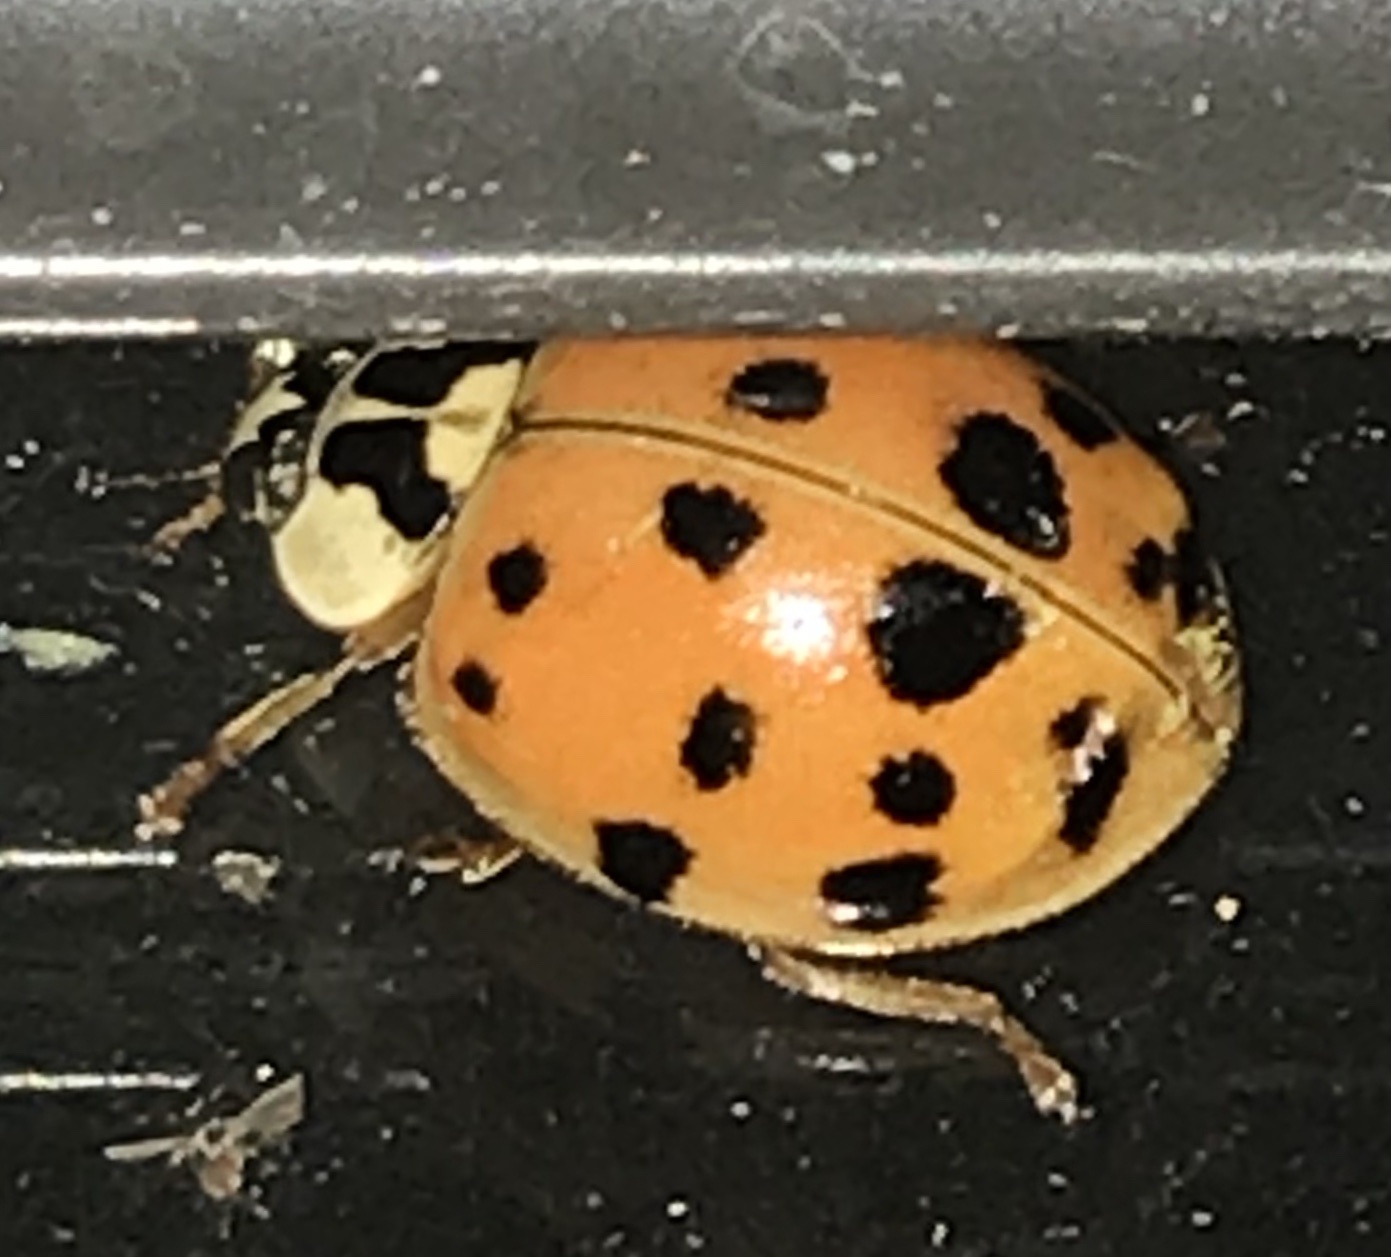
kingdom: Animalia
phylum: Arthropoda
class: Insecta
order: Coleoptera
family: Coccinellidae
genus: Harmonia
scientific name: Harmonia axyridis
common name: Harlequin ladybird
